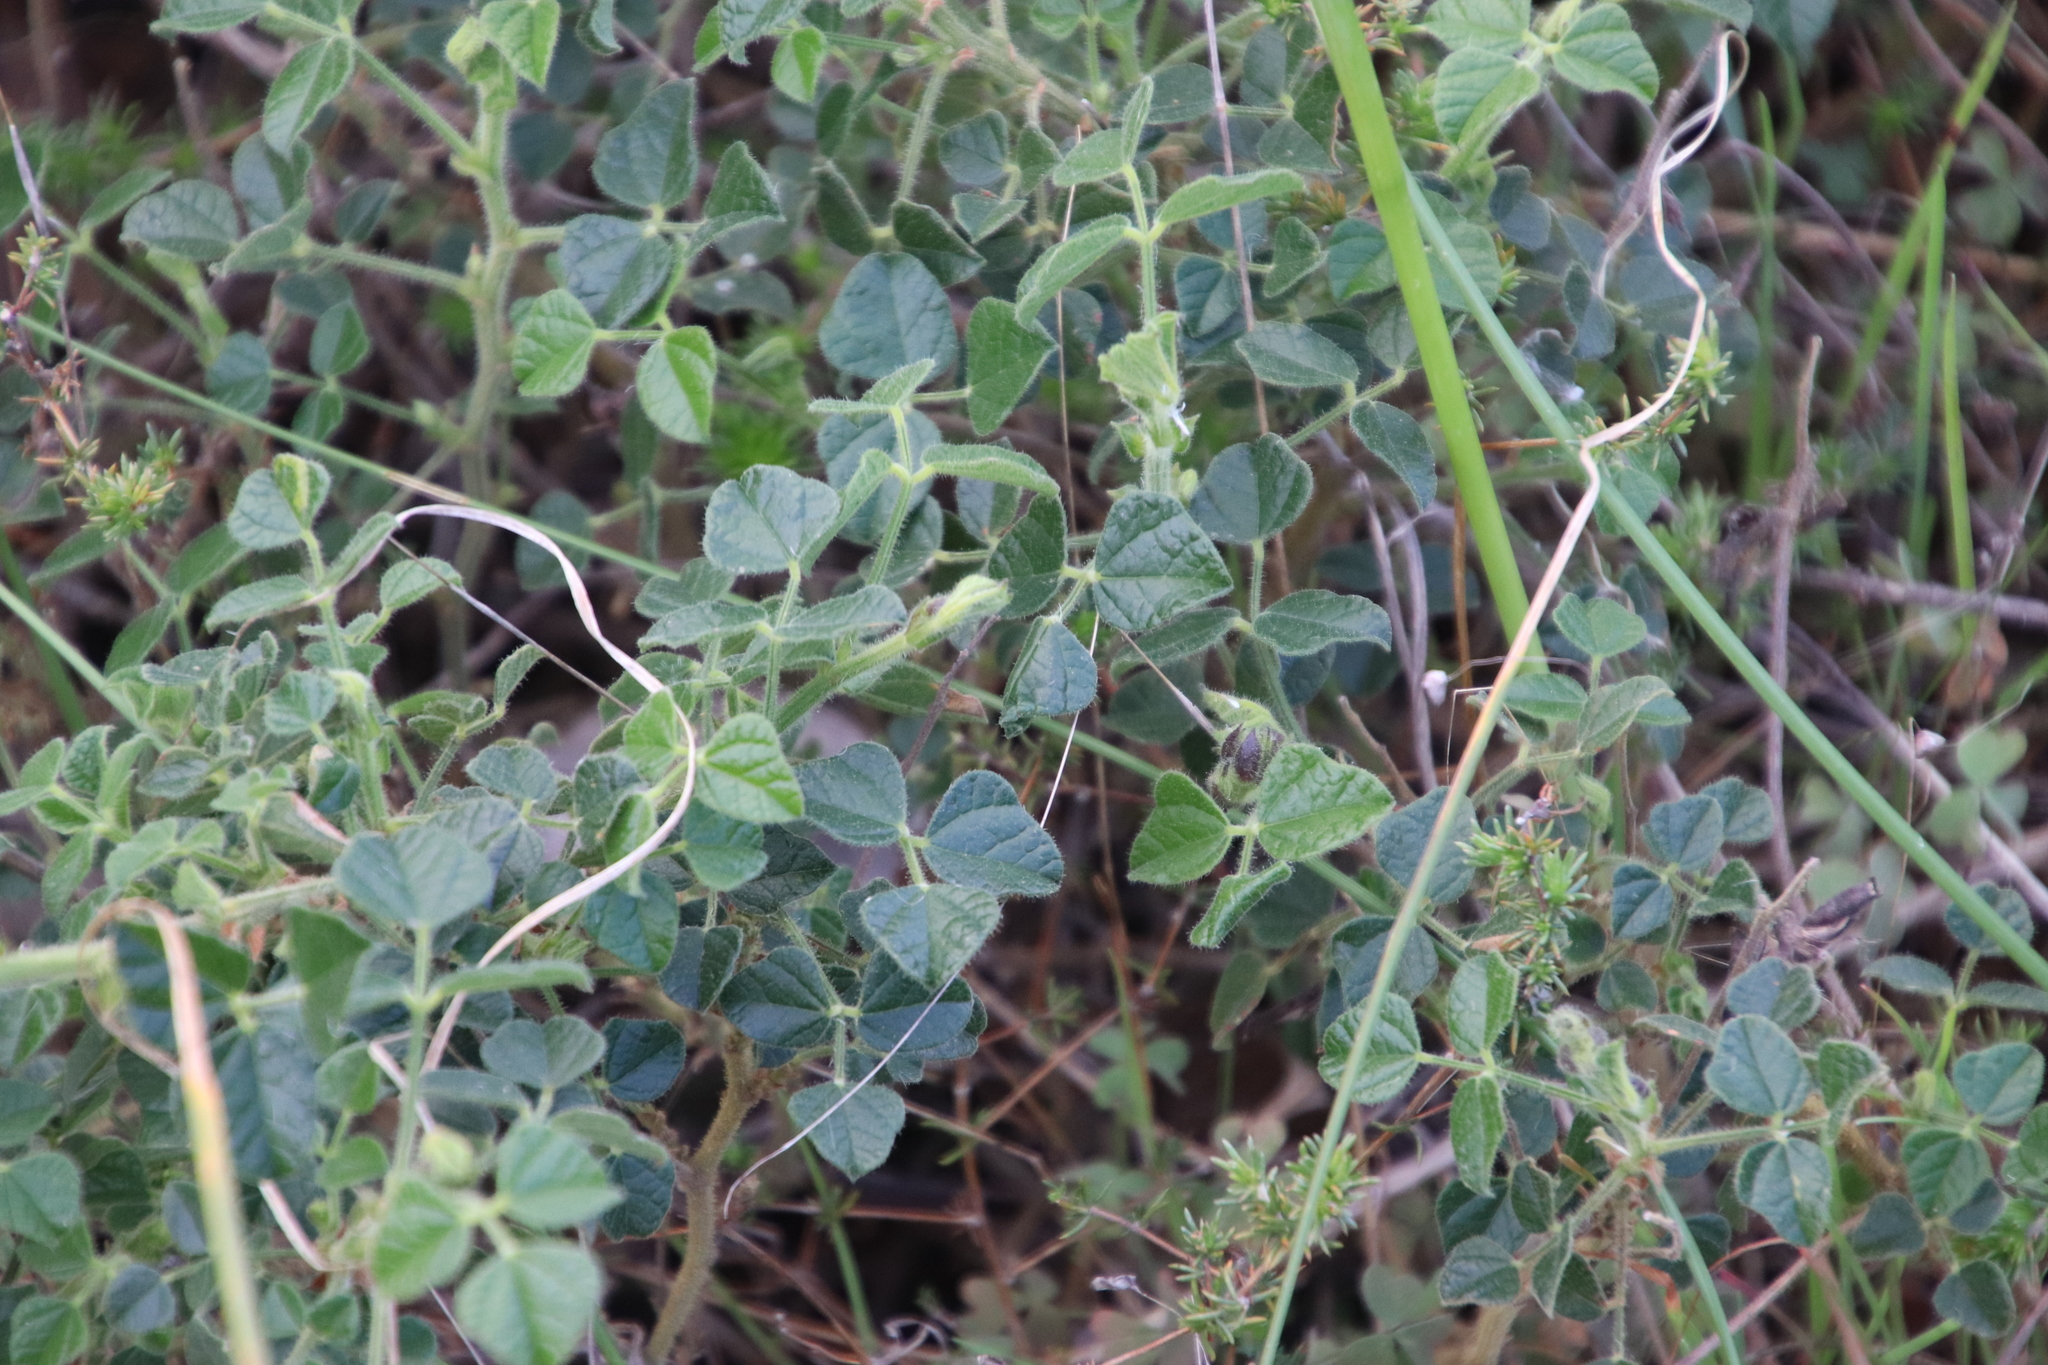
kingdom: Plantae
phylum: Tracheophyta
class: Magnoliopsida
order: Fabales
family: Fabaceae
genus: Bolusafra
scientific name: Bolusafra bituminosa
